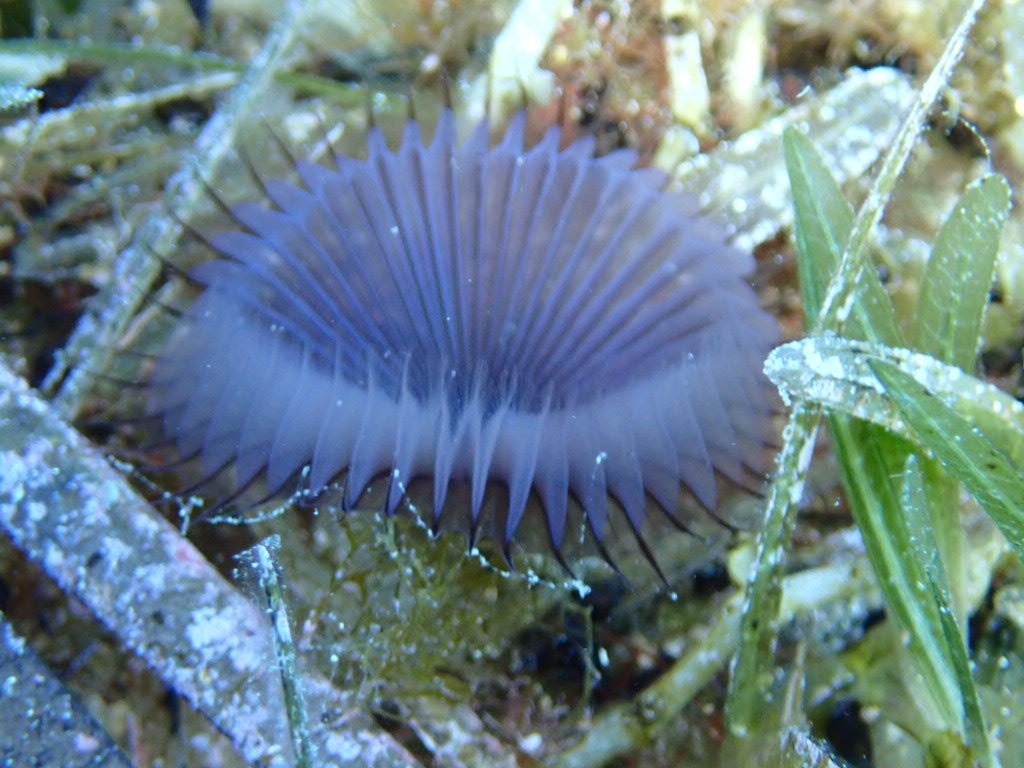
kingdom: Animalia
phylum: Annelida
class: Polychaeta
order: Sabellida
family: Sabellidae
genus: Myxicola
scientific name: Myxicola infundibulum
